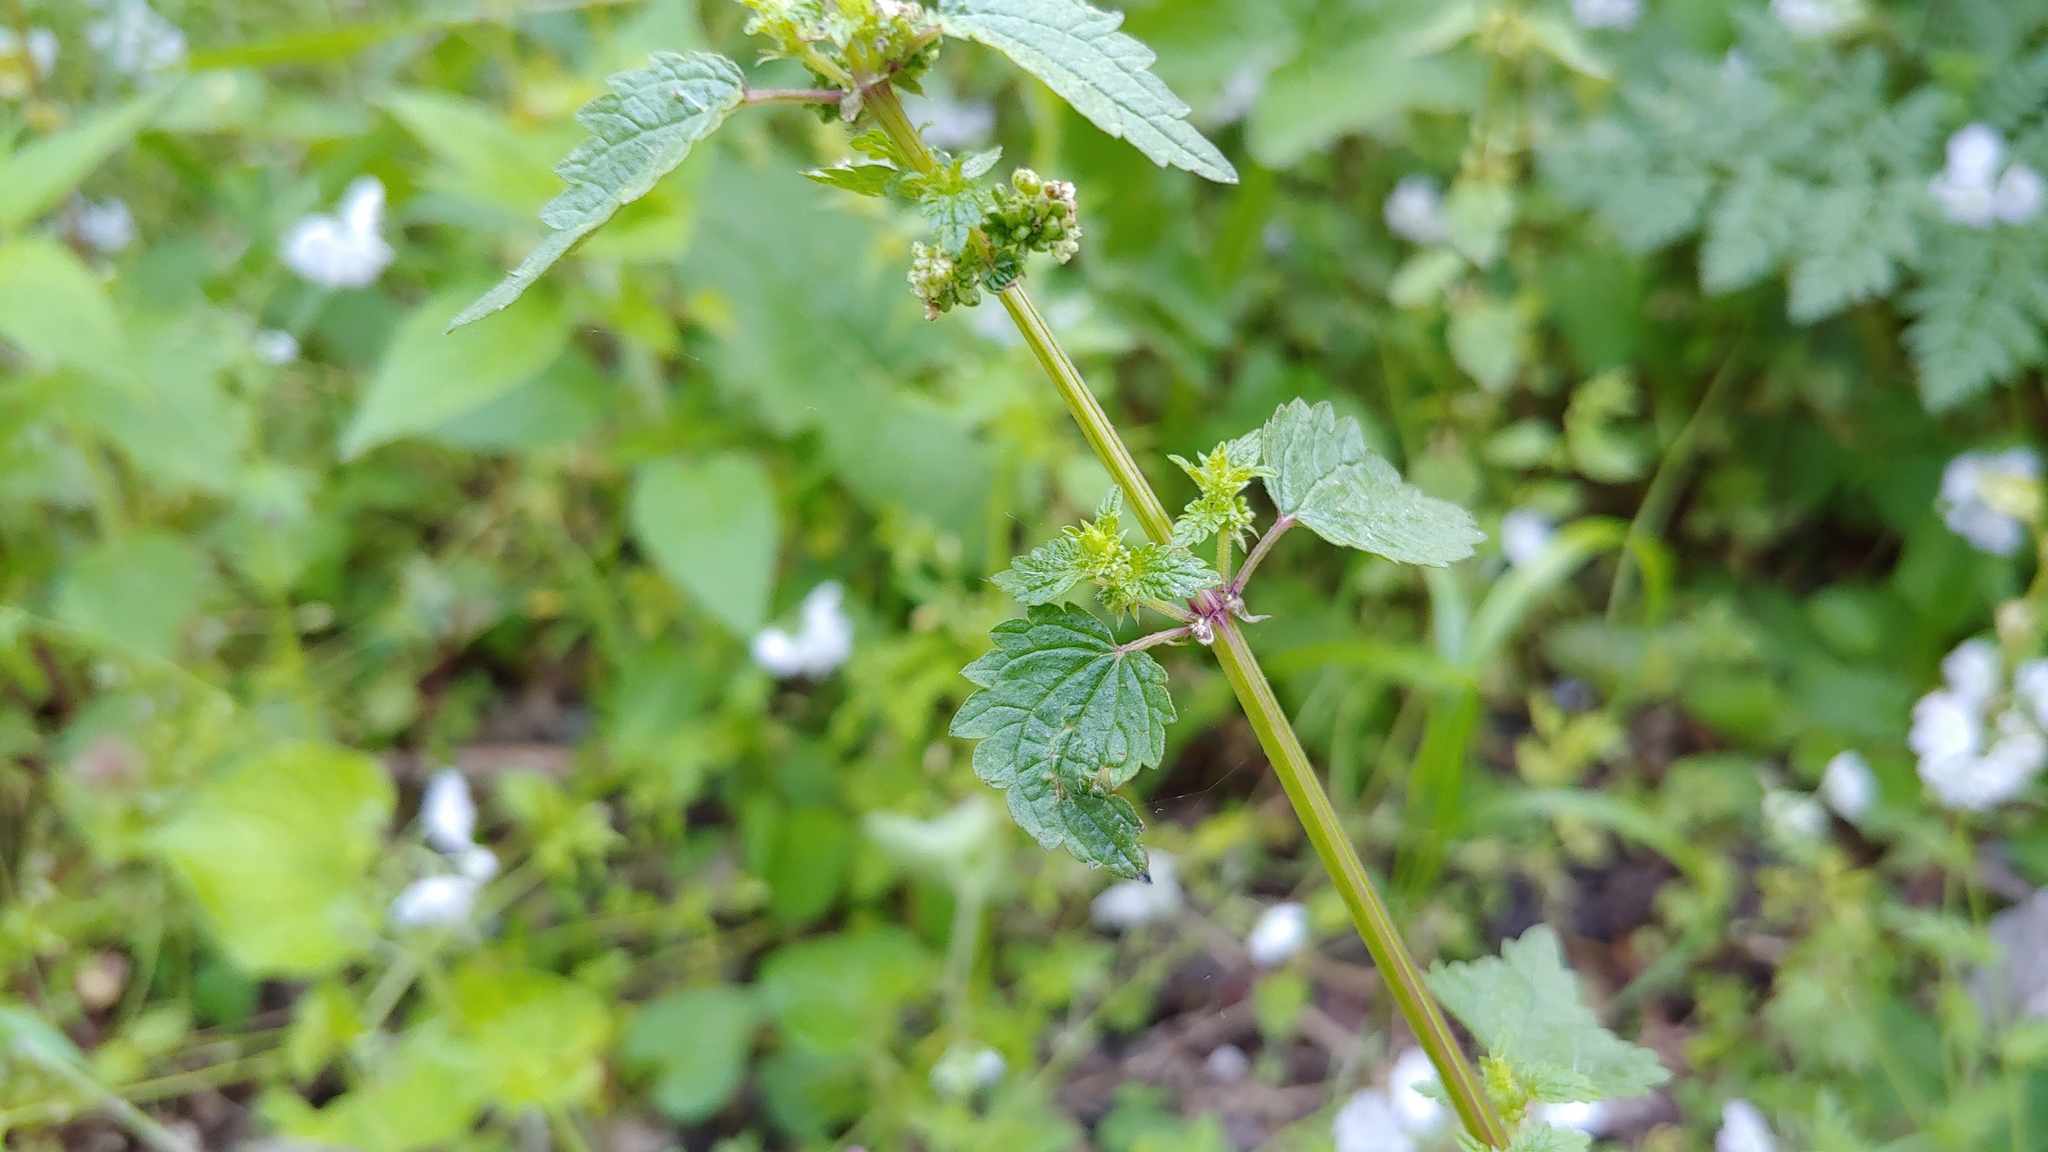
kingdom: Plantae
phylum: Tracheophyta
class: Magnoliopsida
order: Rosales
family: Urticaceae
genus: Urtica
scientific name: Urtica chamaedryoides
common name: Heart-leaf nettle
